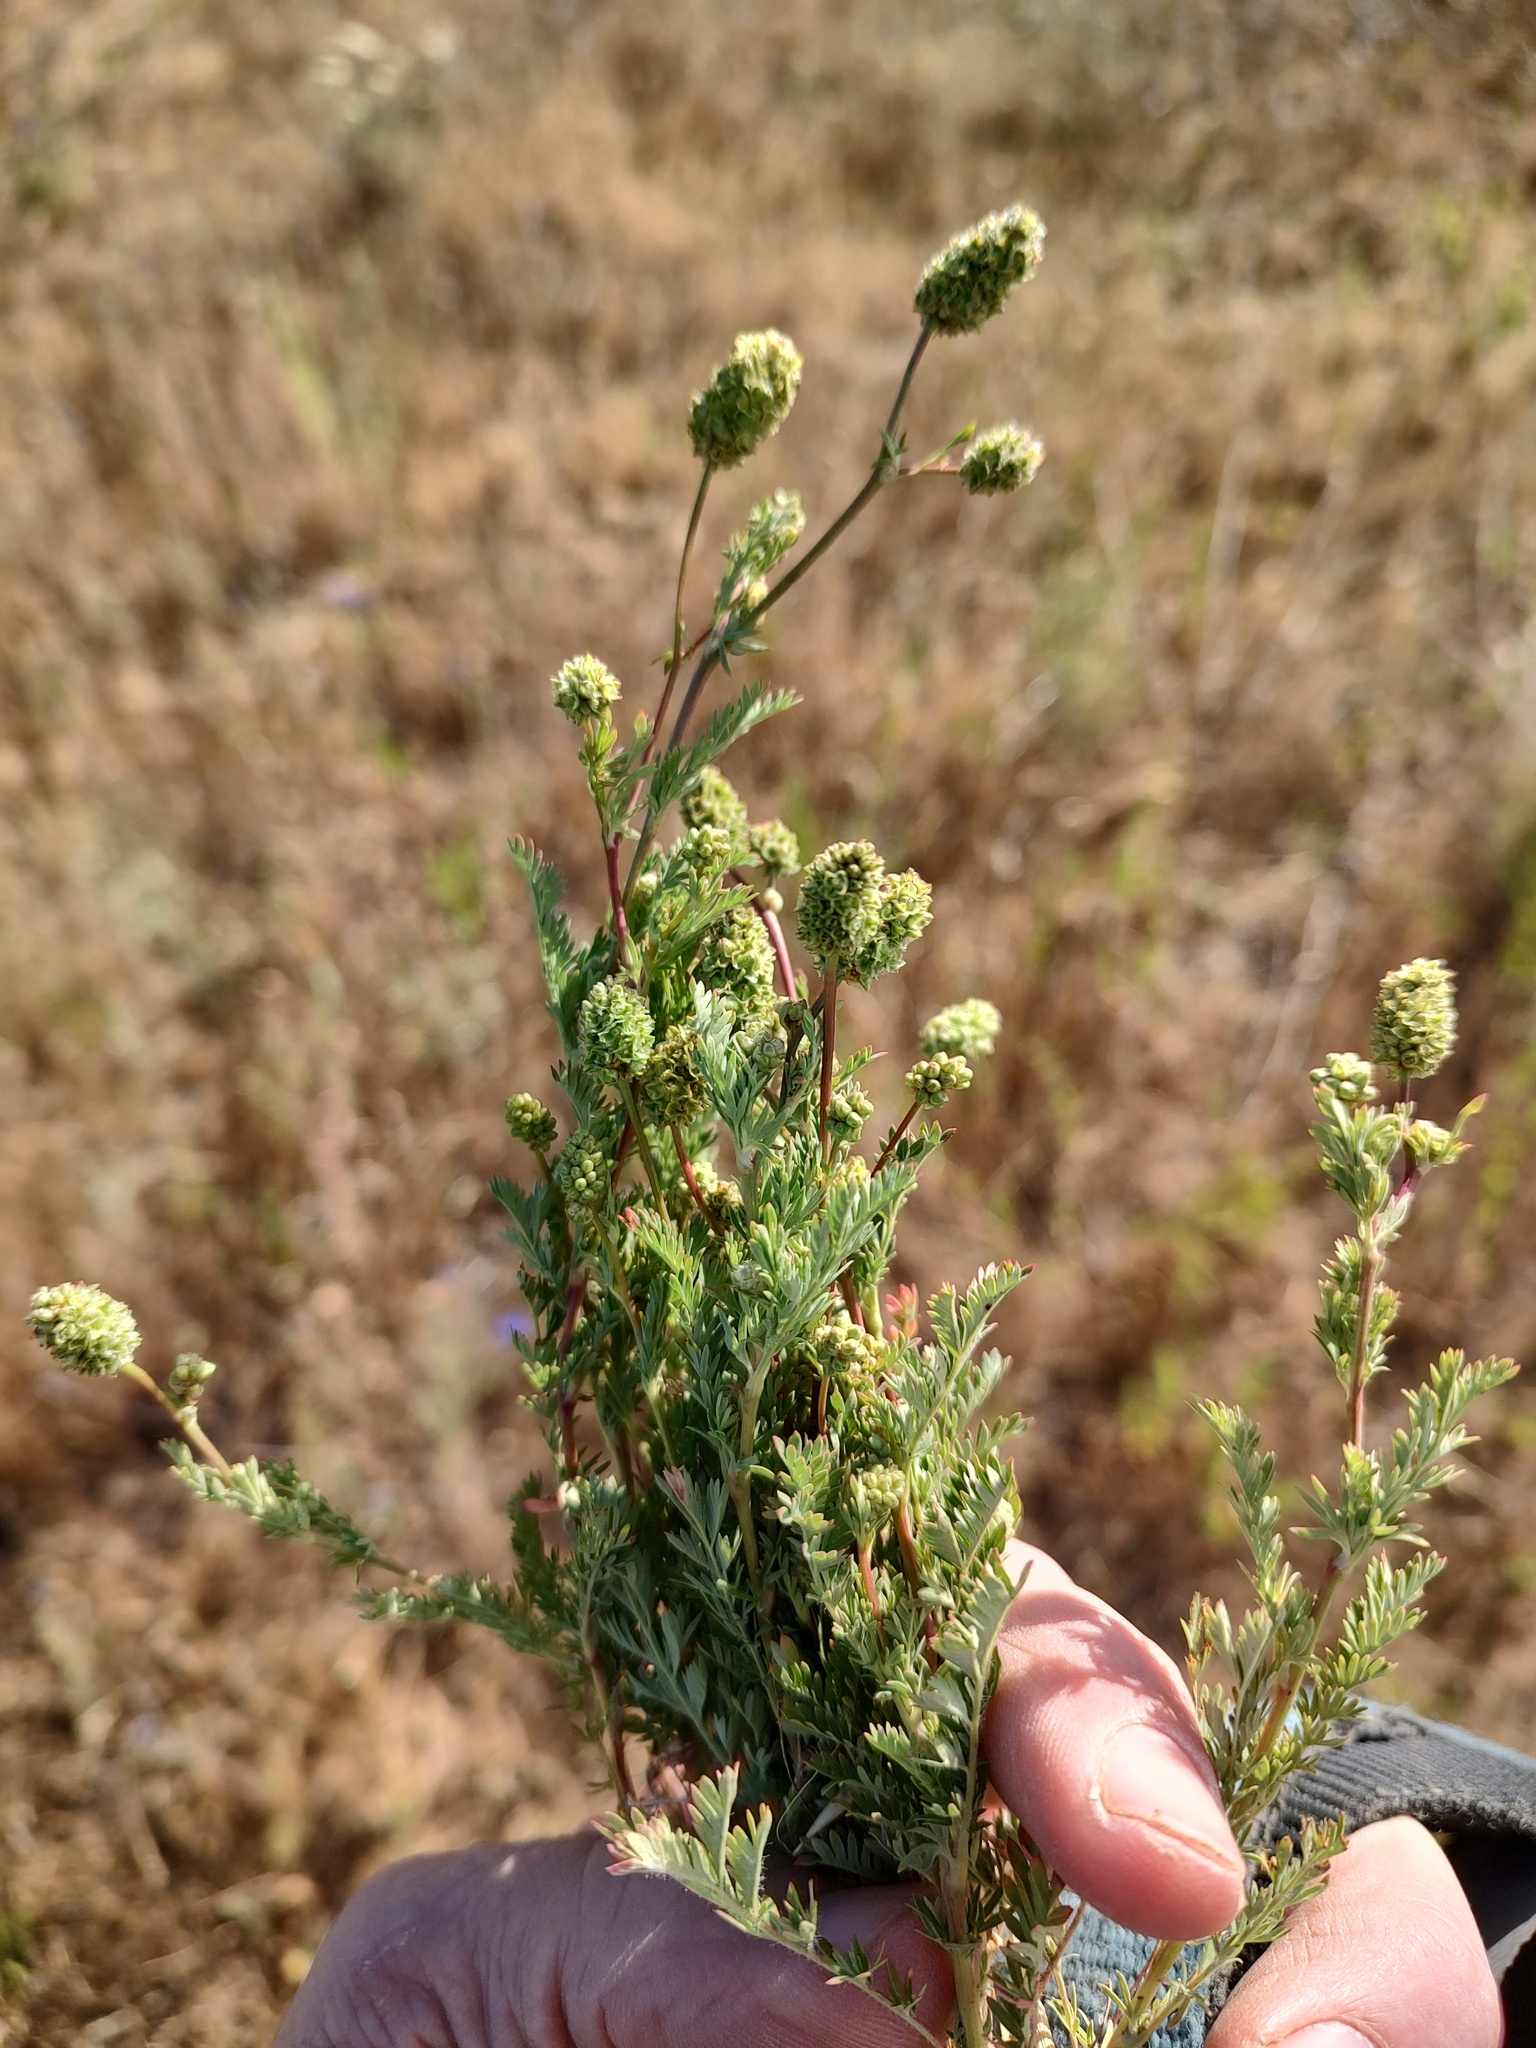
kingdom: Plantae
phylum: Tracheophyta
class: Magnoliopsida
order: Rosales
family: Rosaceae
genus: Poteridium
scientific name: Poteridium annuum
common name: Annual burnet
